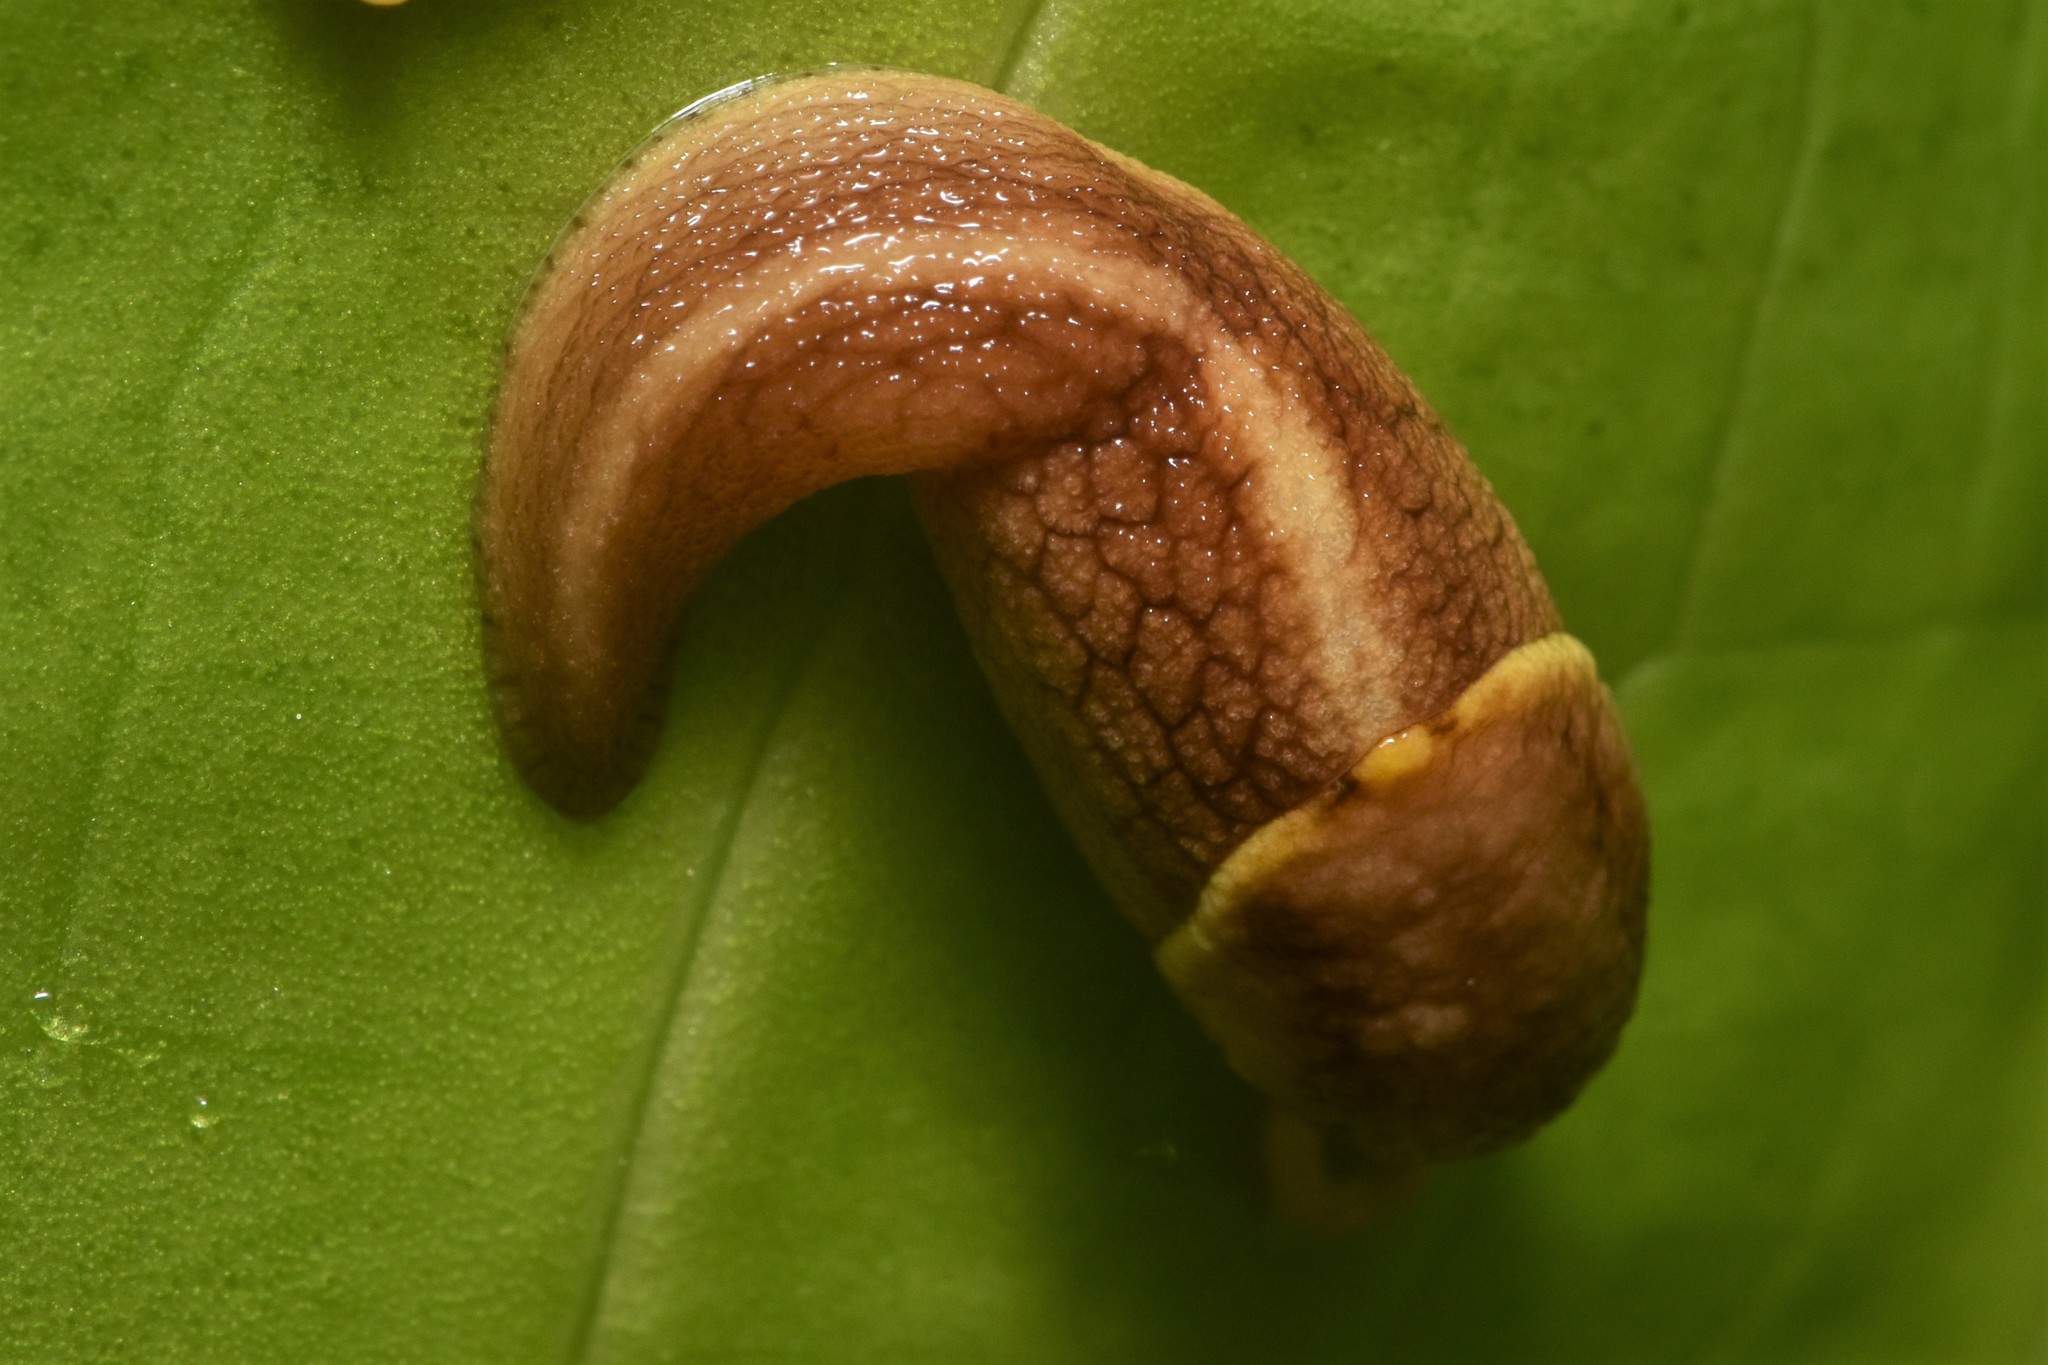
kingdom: Animalia
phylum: Mollusca
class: Gastropoda
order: Stylommatophora
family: Ariolimacidae
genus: Prophysaon
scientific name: Prophysaon foliolatum
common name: Yellow-bordered taildropper
